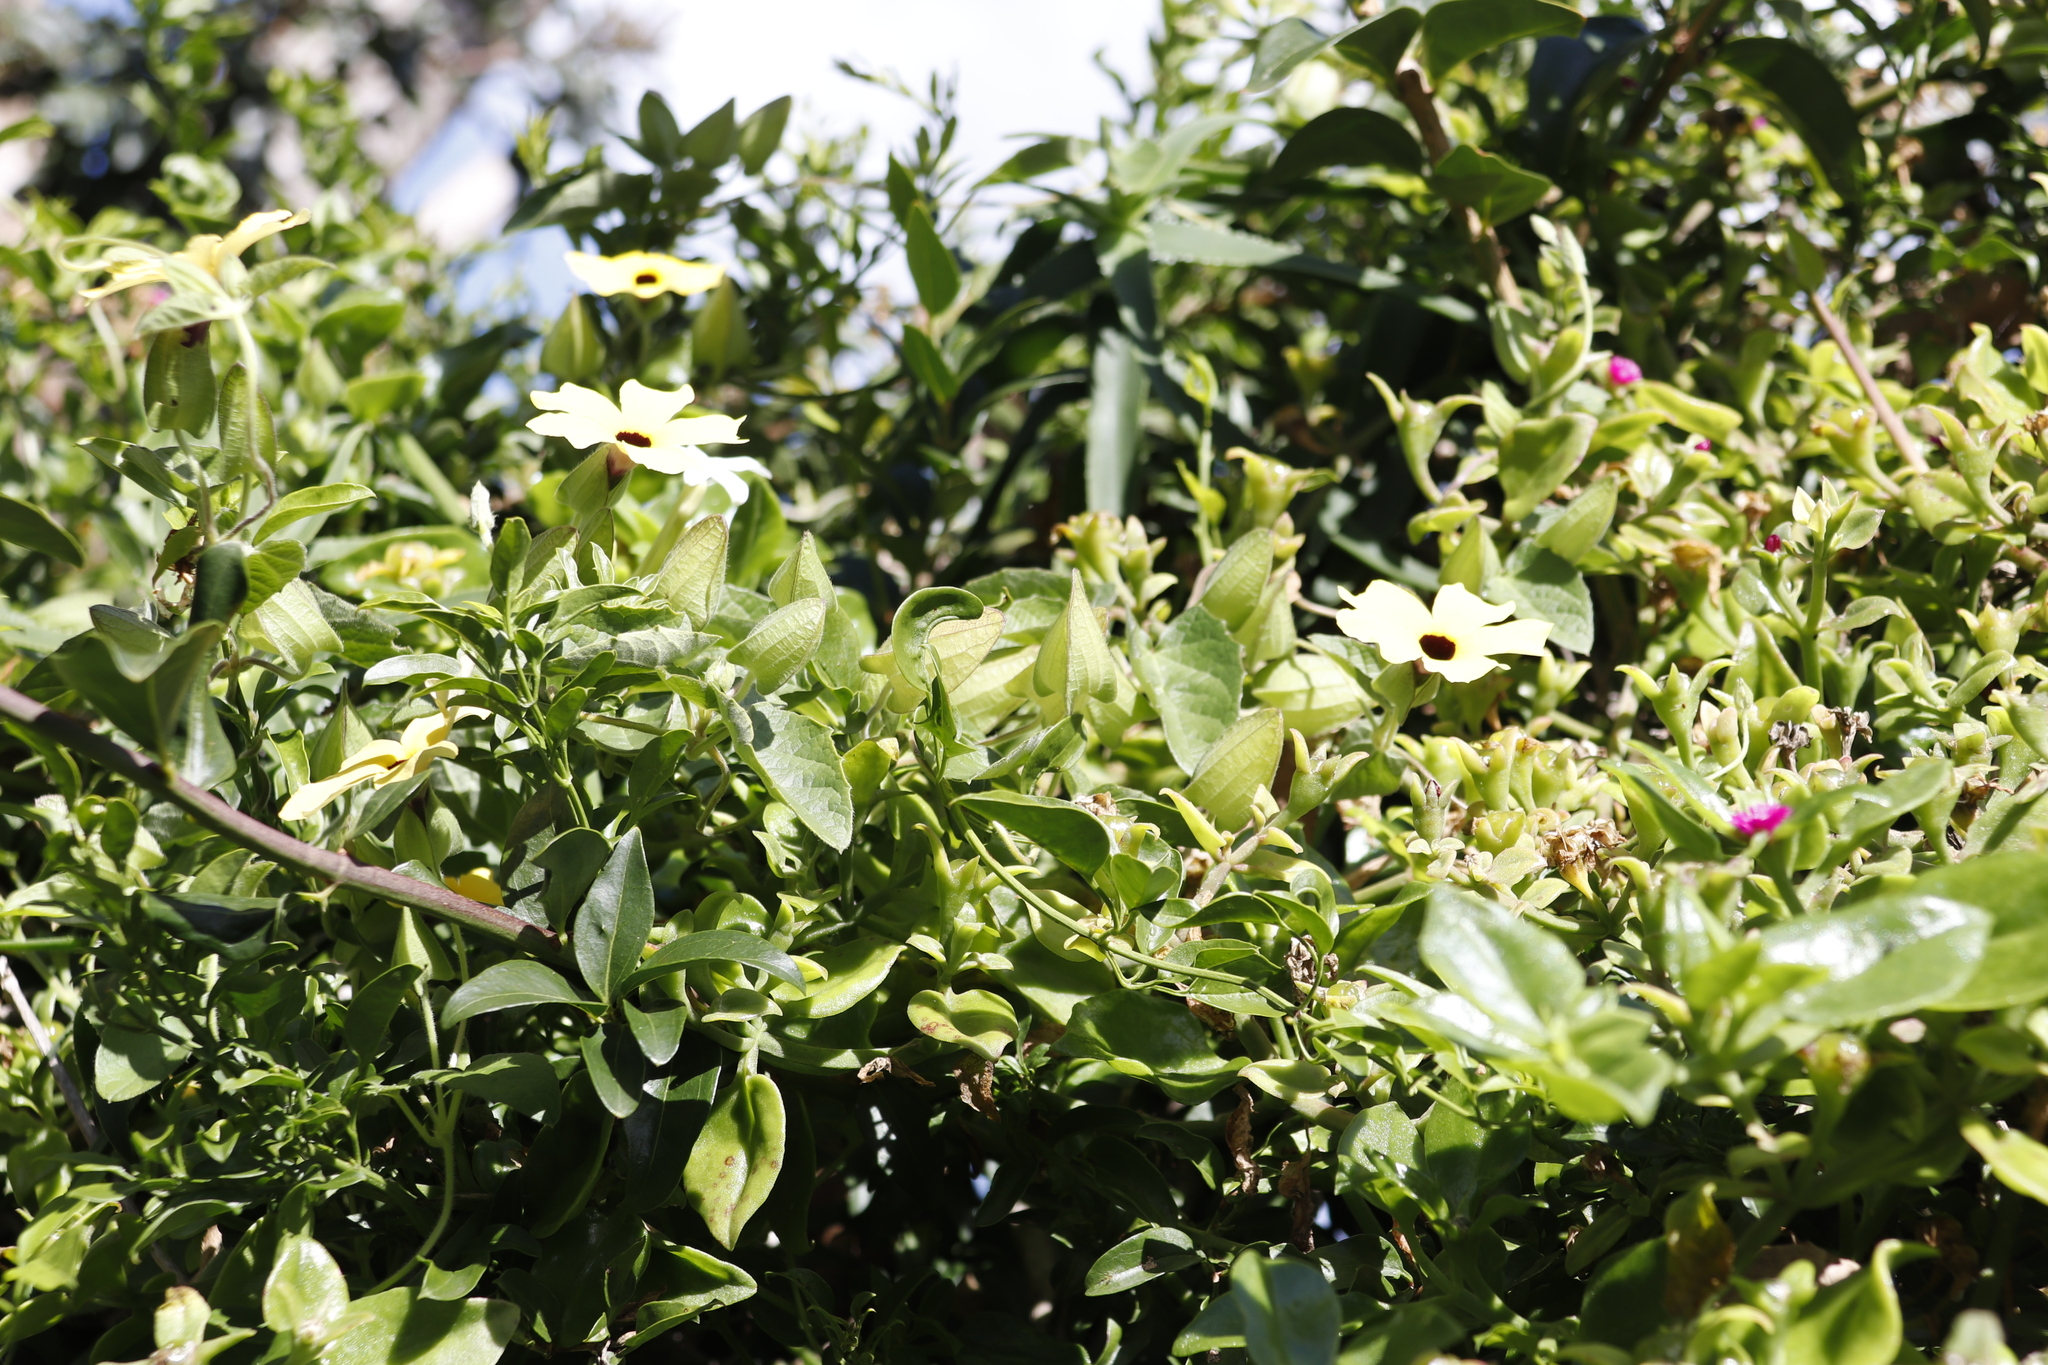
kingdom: Plantae
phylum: Tracheophyta
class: Magnoliopsida
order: Lamiales
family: Acanthaceae
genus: Thunbergia
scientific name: Thunbergia alata
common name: Blackeyed susan vine
